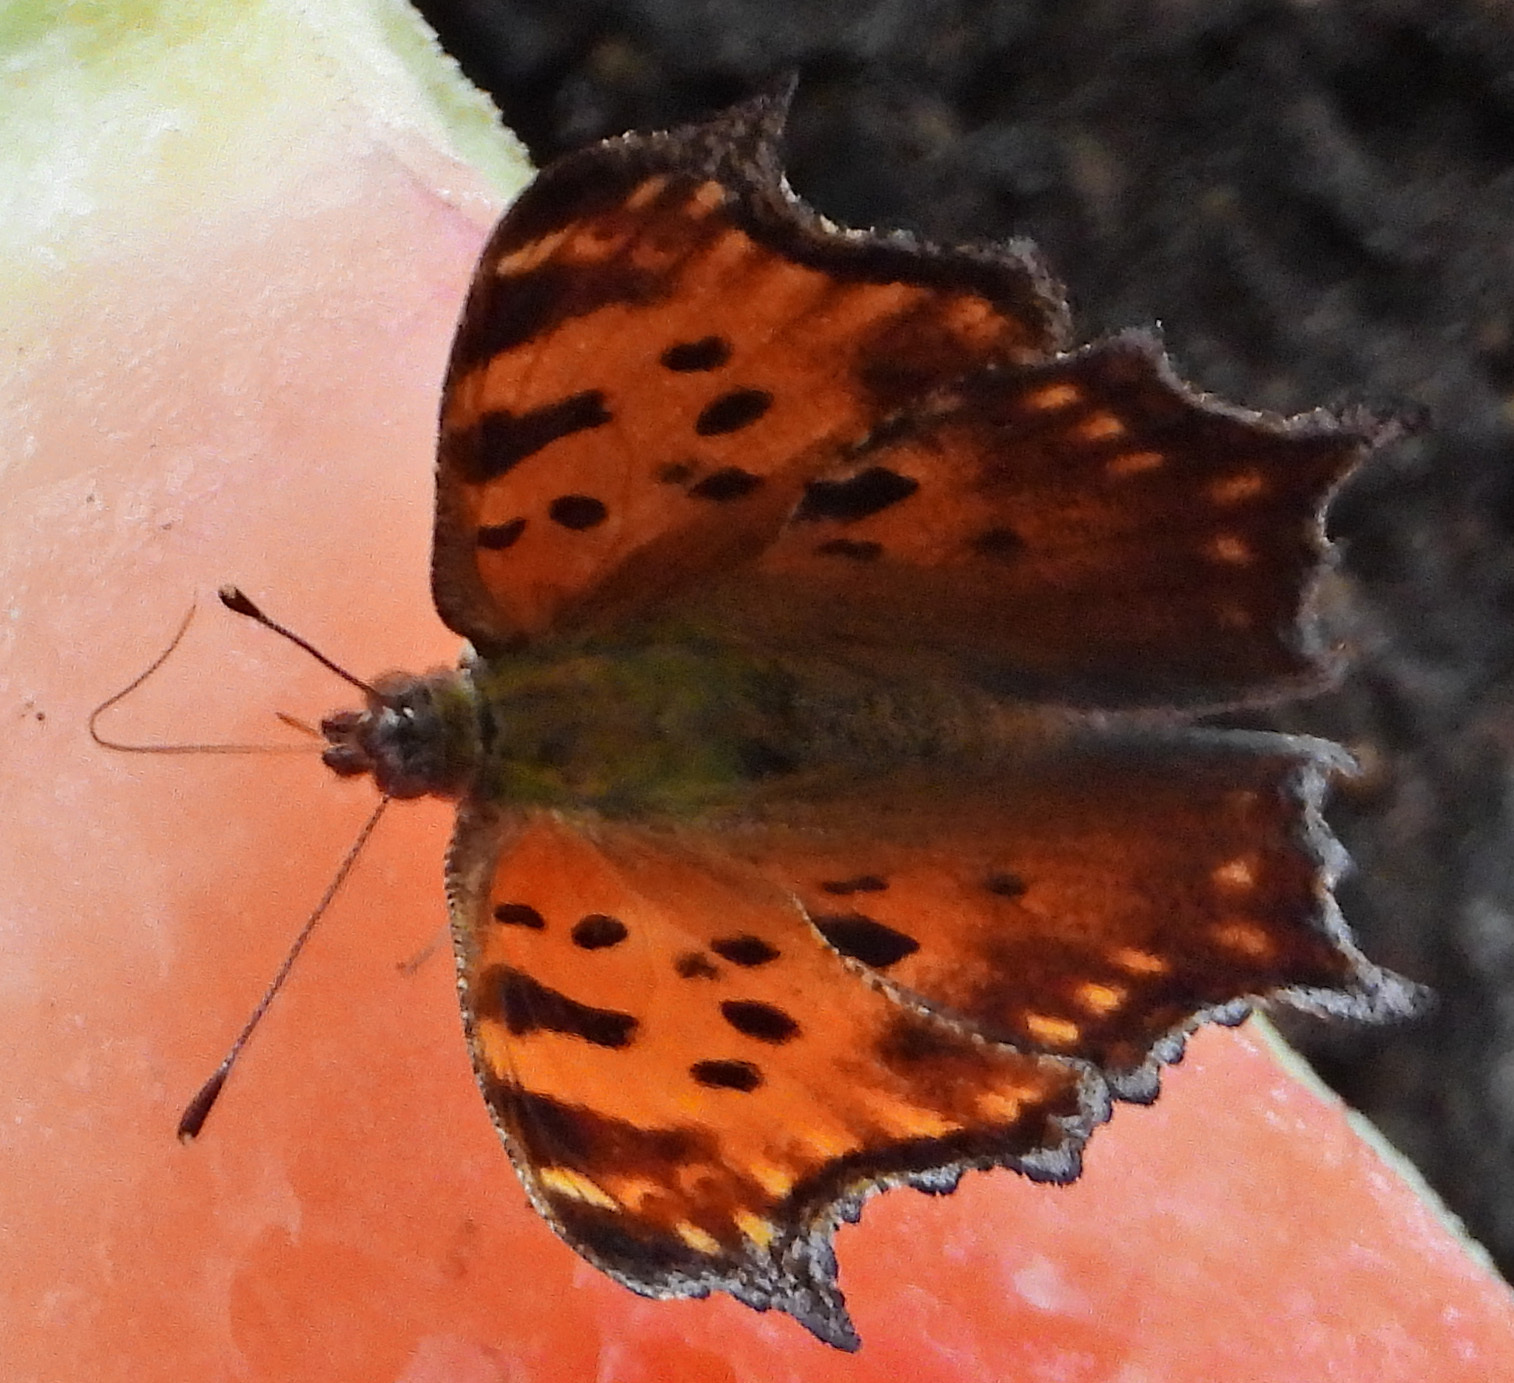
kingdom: Animalia
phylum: Arthropoda
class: Insecta
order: Lepidoptera
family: Nymphalidae
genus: Polygonia
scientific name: Polygonia comma
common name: Eastern comma
